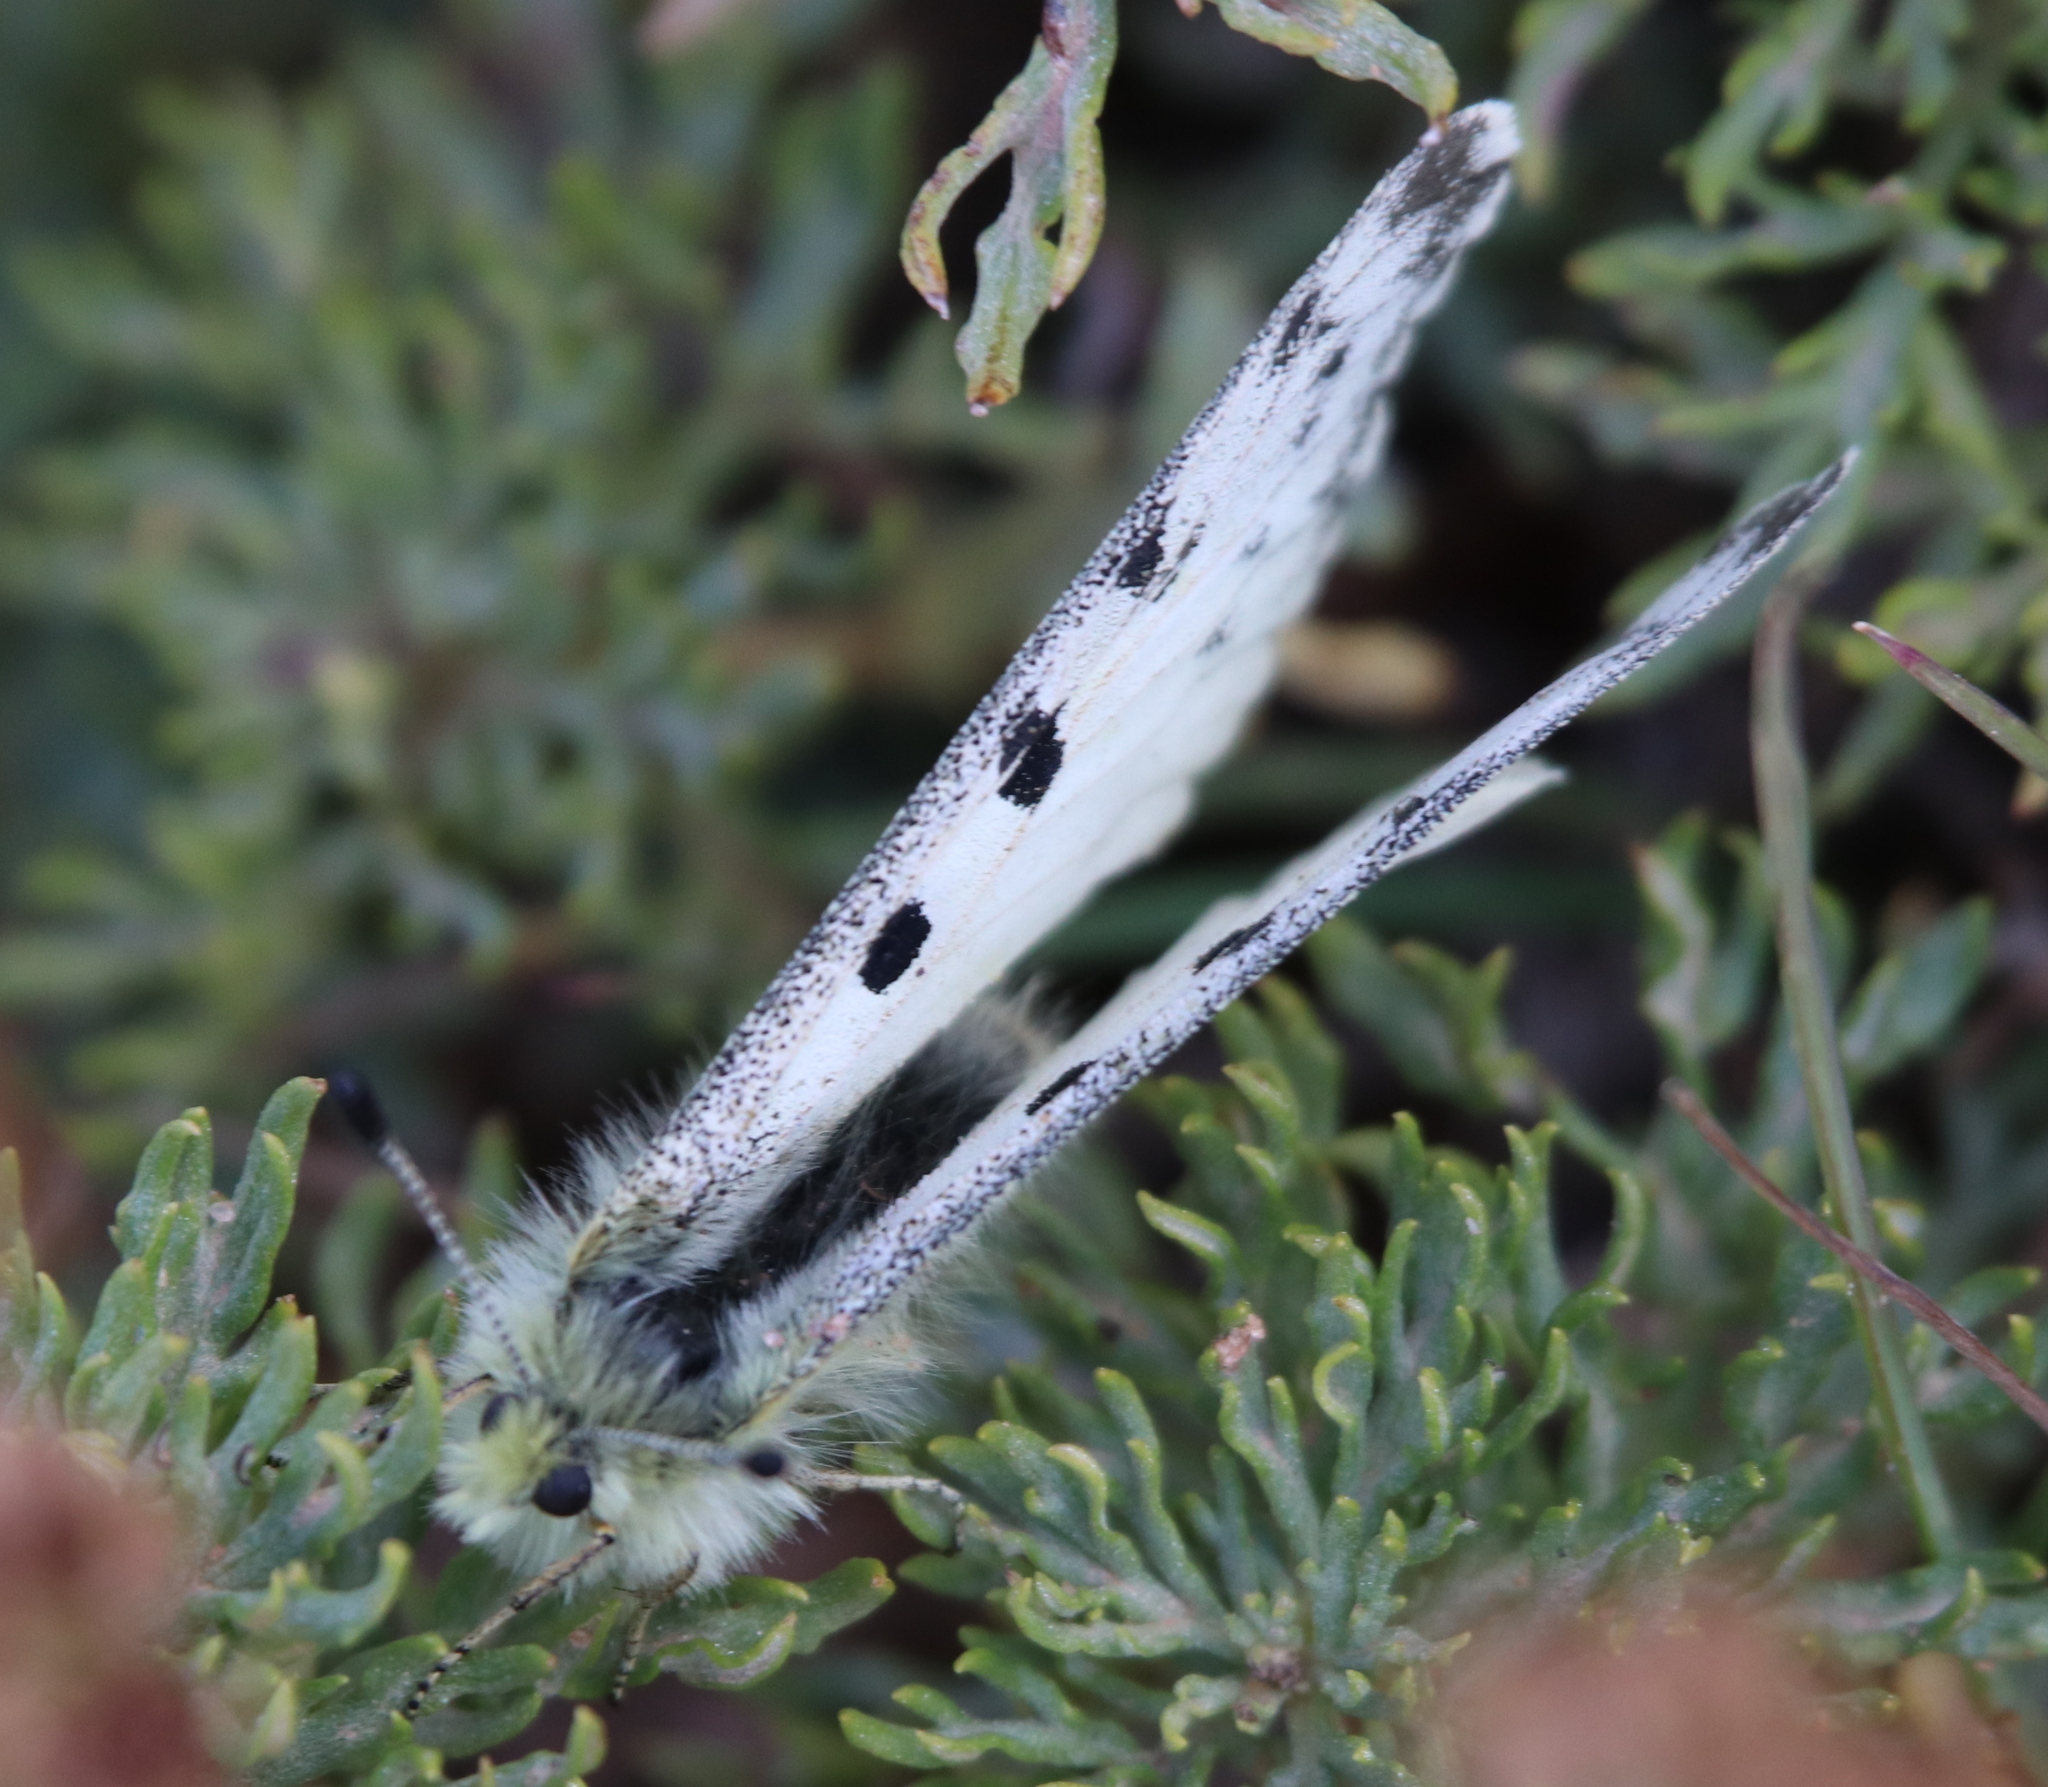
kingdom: Animalia
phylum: Arthropoda
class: Insecta
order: Lepidoptera
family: Papilionidae
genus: Parnassius
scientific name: Parnassius smintheus
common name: Mountain parnassian
